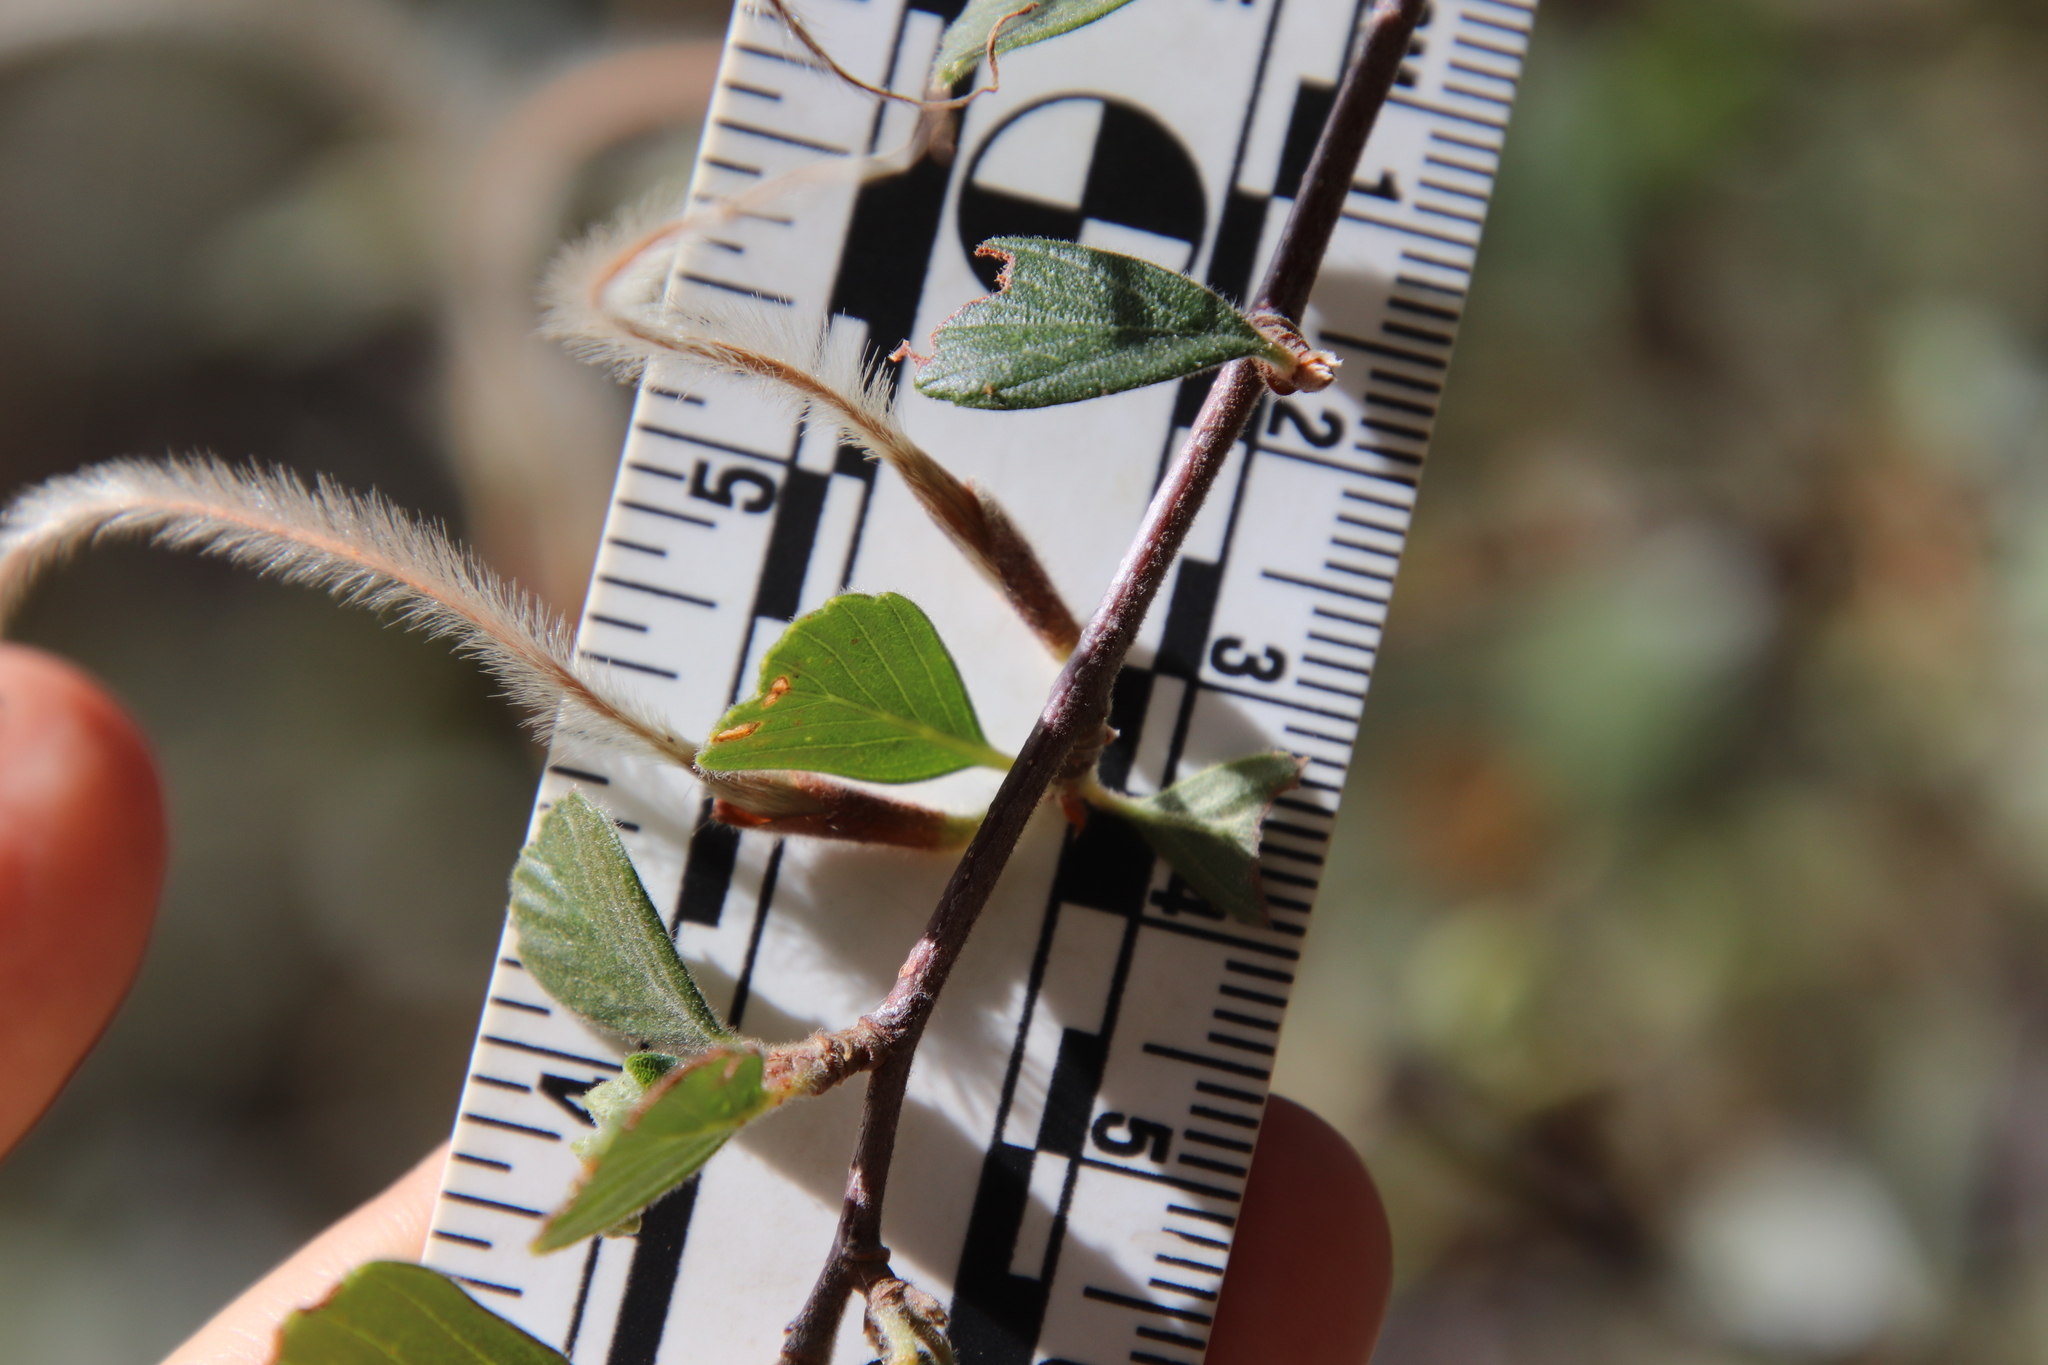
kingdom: Plantae
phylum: Tracheophyta
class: Magnoliopsida
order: Rosales
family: Rosaceae
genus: Cercocarpus
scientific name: Cercocarpus betuloides
